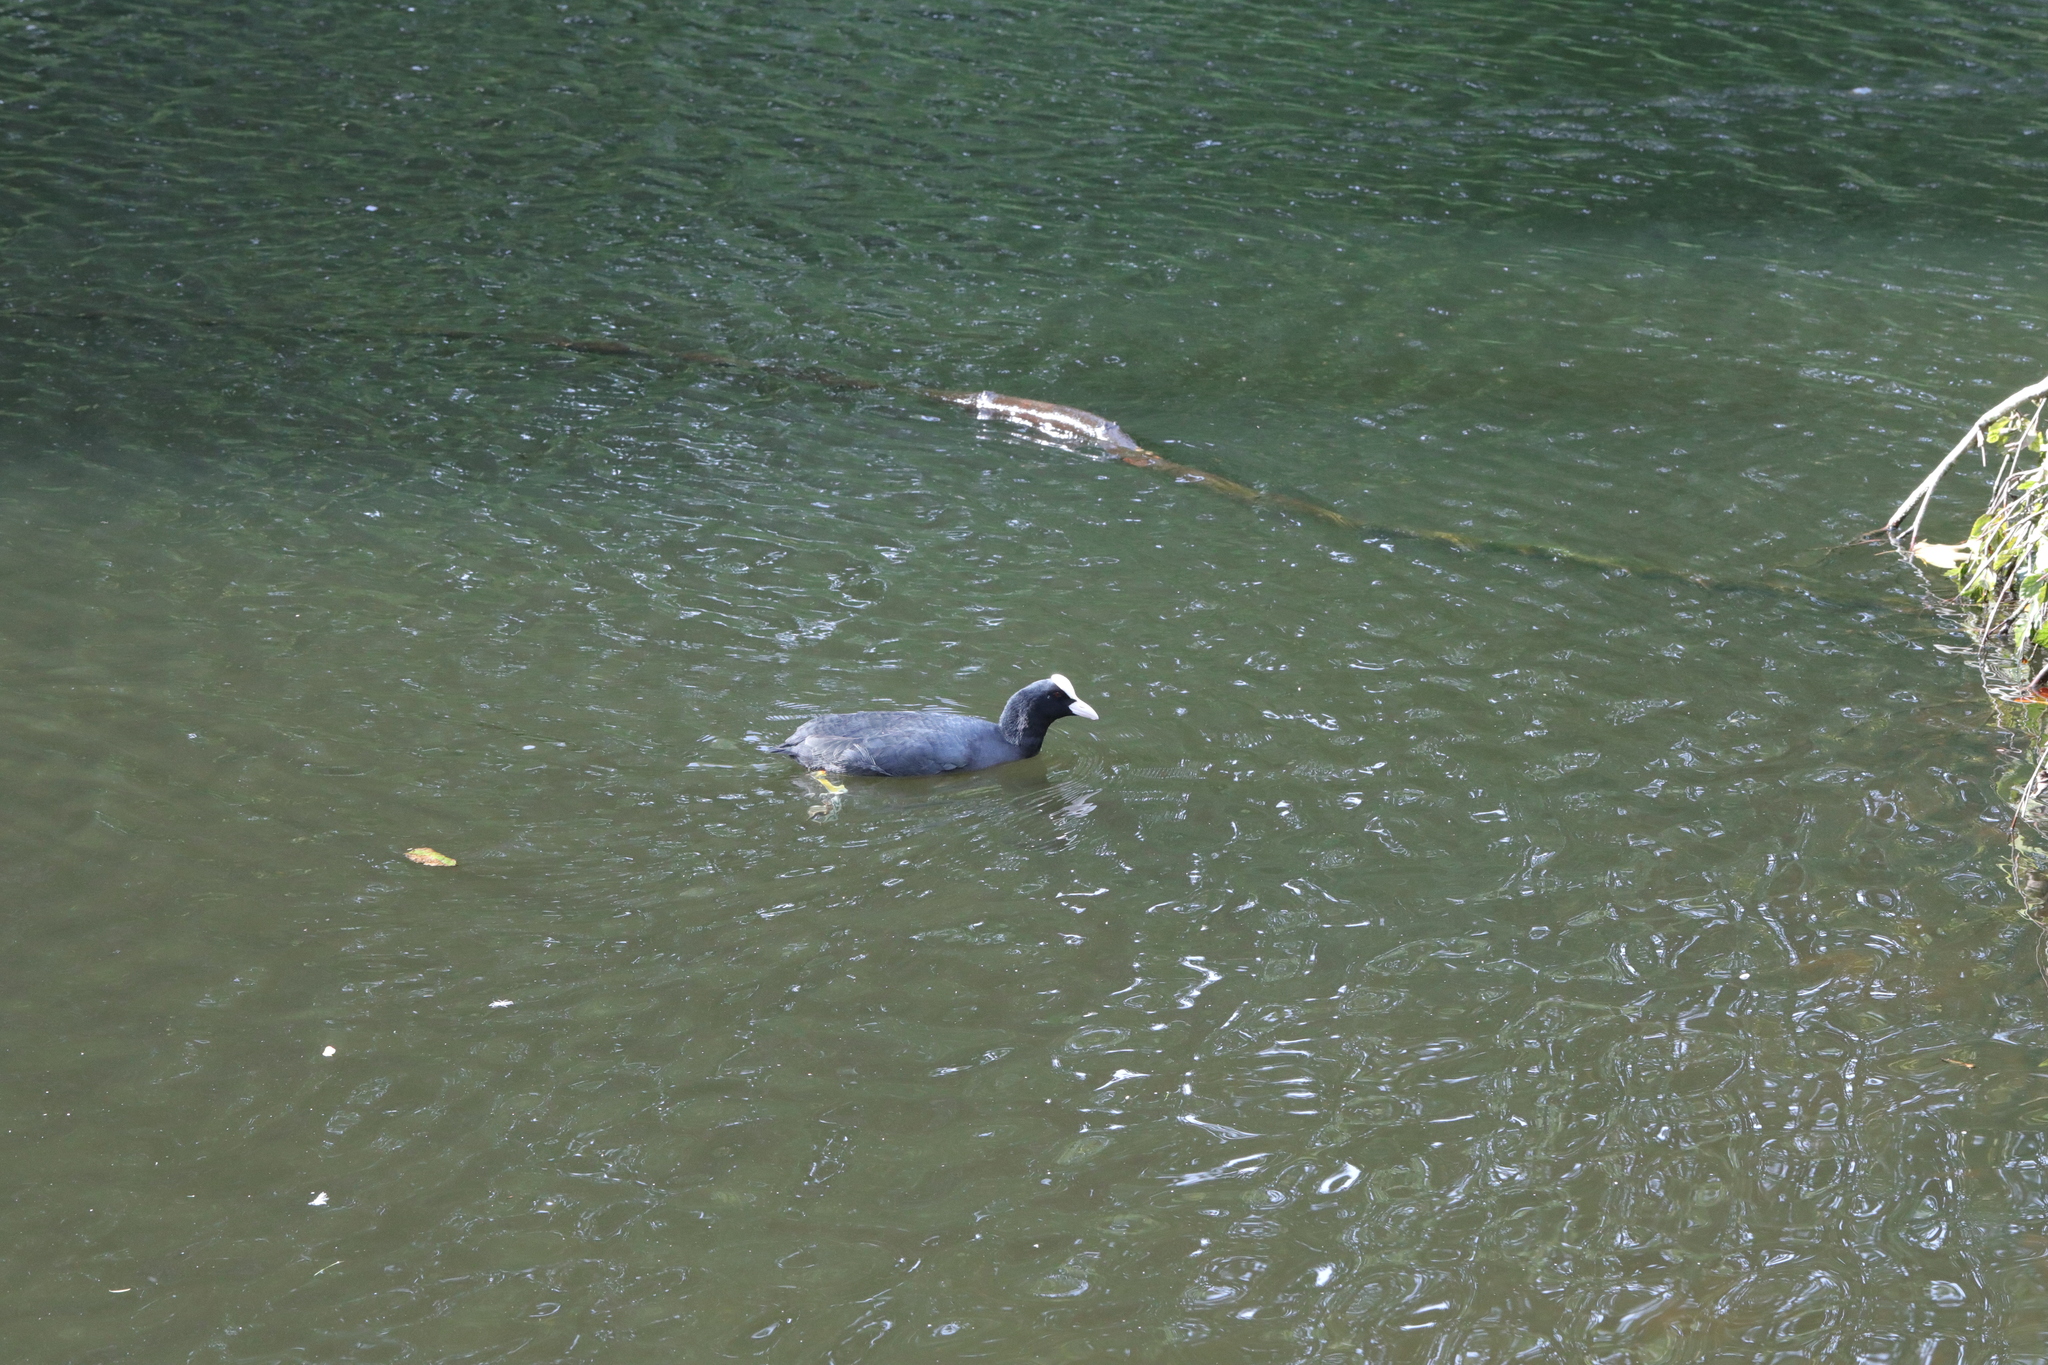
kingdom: Animalia
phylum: Chordata
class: Aves
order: Gruiformes
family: Rallidae
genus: Fulica
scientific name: Fulica atra
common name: Eurasian coot
